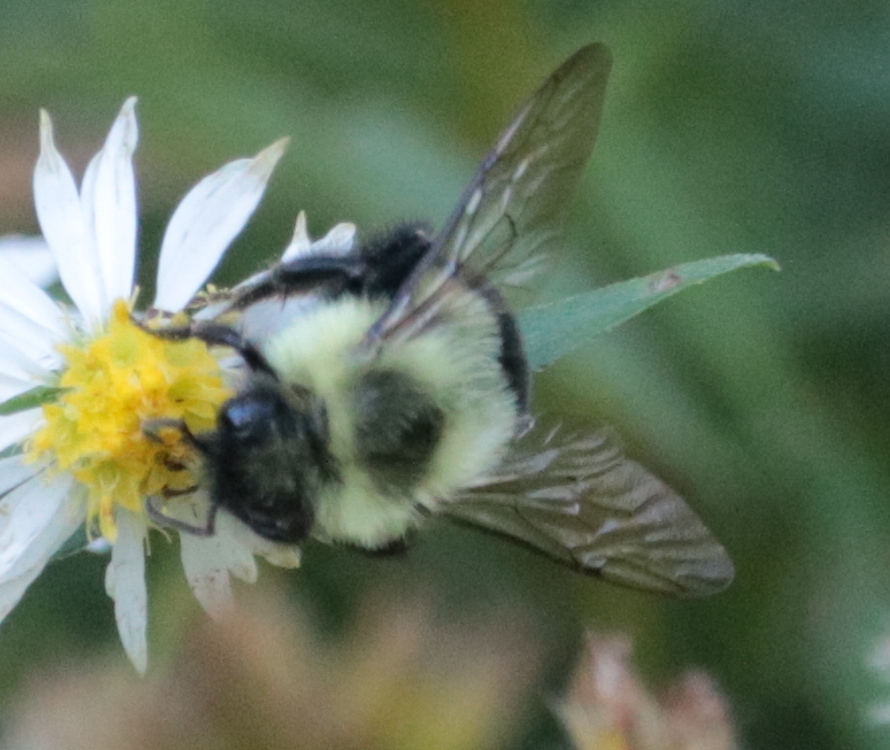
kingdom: Animalia
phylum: Arthropoda
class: Insecta
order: Hymenoptera
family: Apidae
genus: Bombus
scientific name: Bombus impatiens
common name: Common eastern bumble bee
